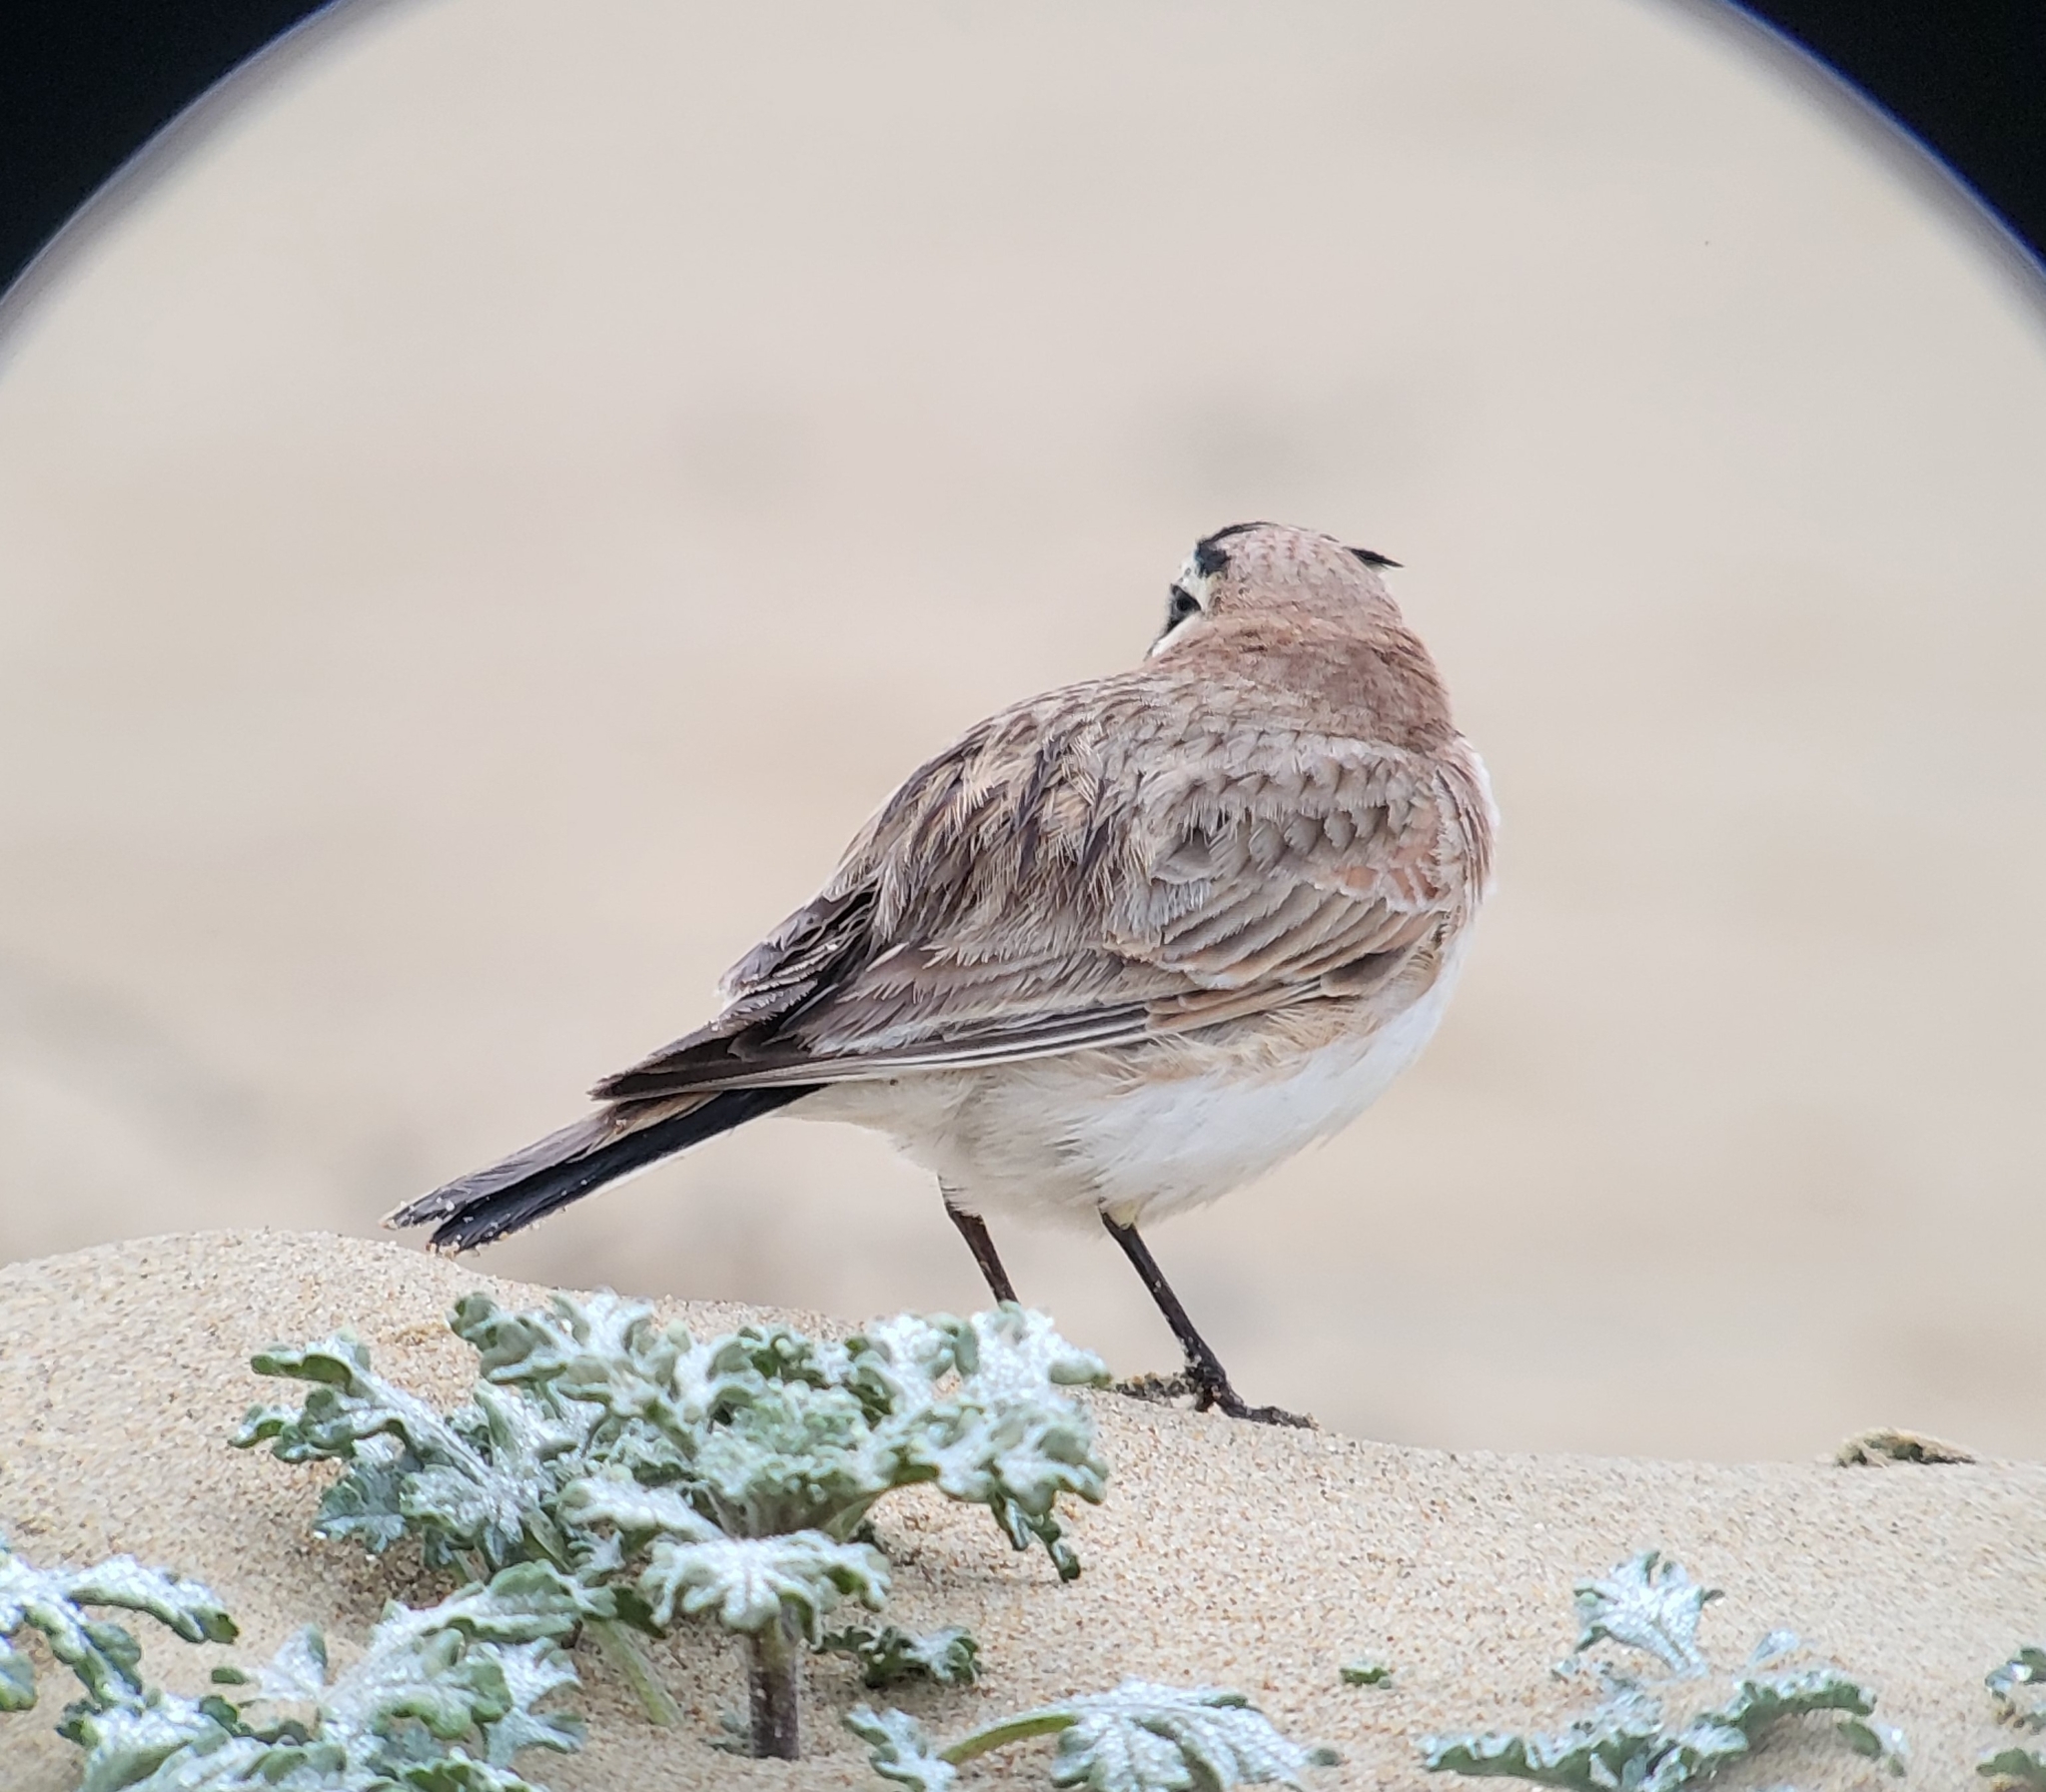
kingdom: Animalia
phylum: Chordata
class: Aves
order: Passeriformes
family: Alaudidae
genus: Eremophila
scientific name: Eremophila alpestris
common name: Horned lark
